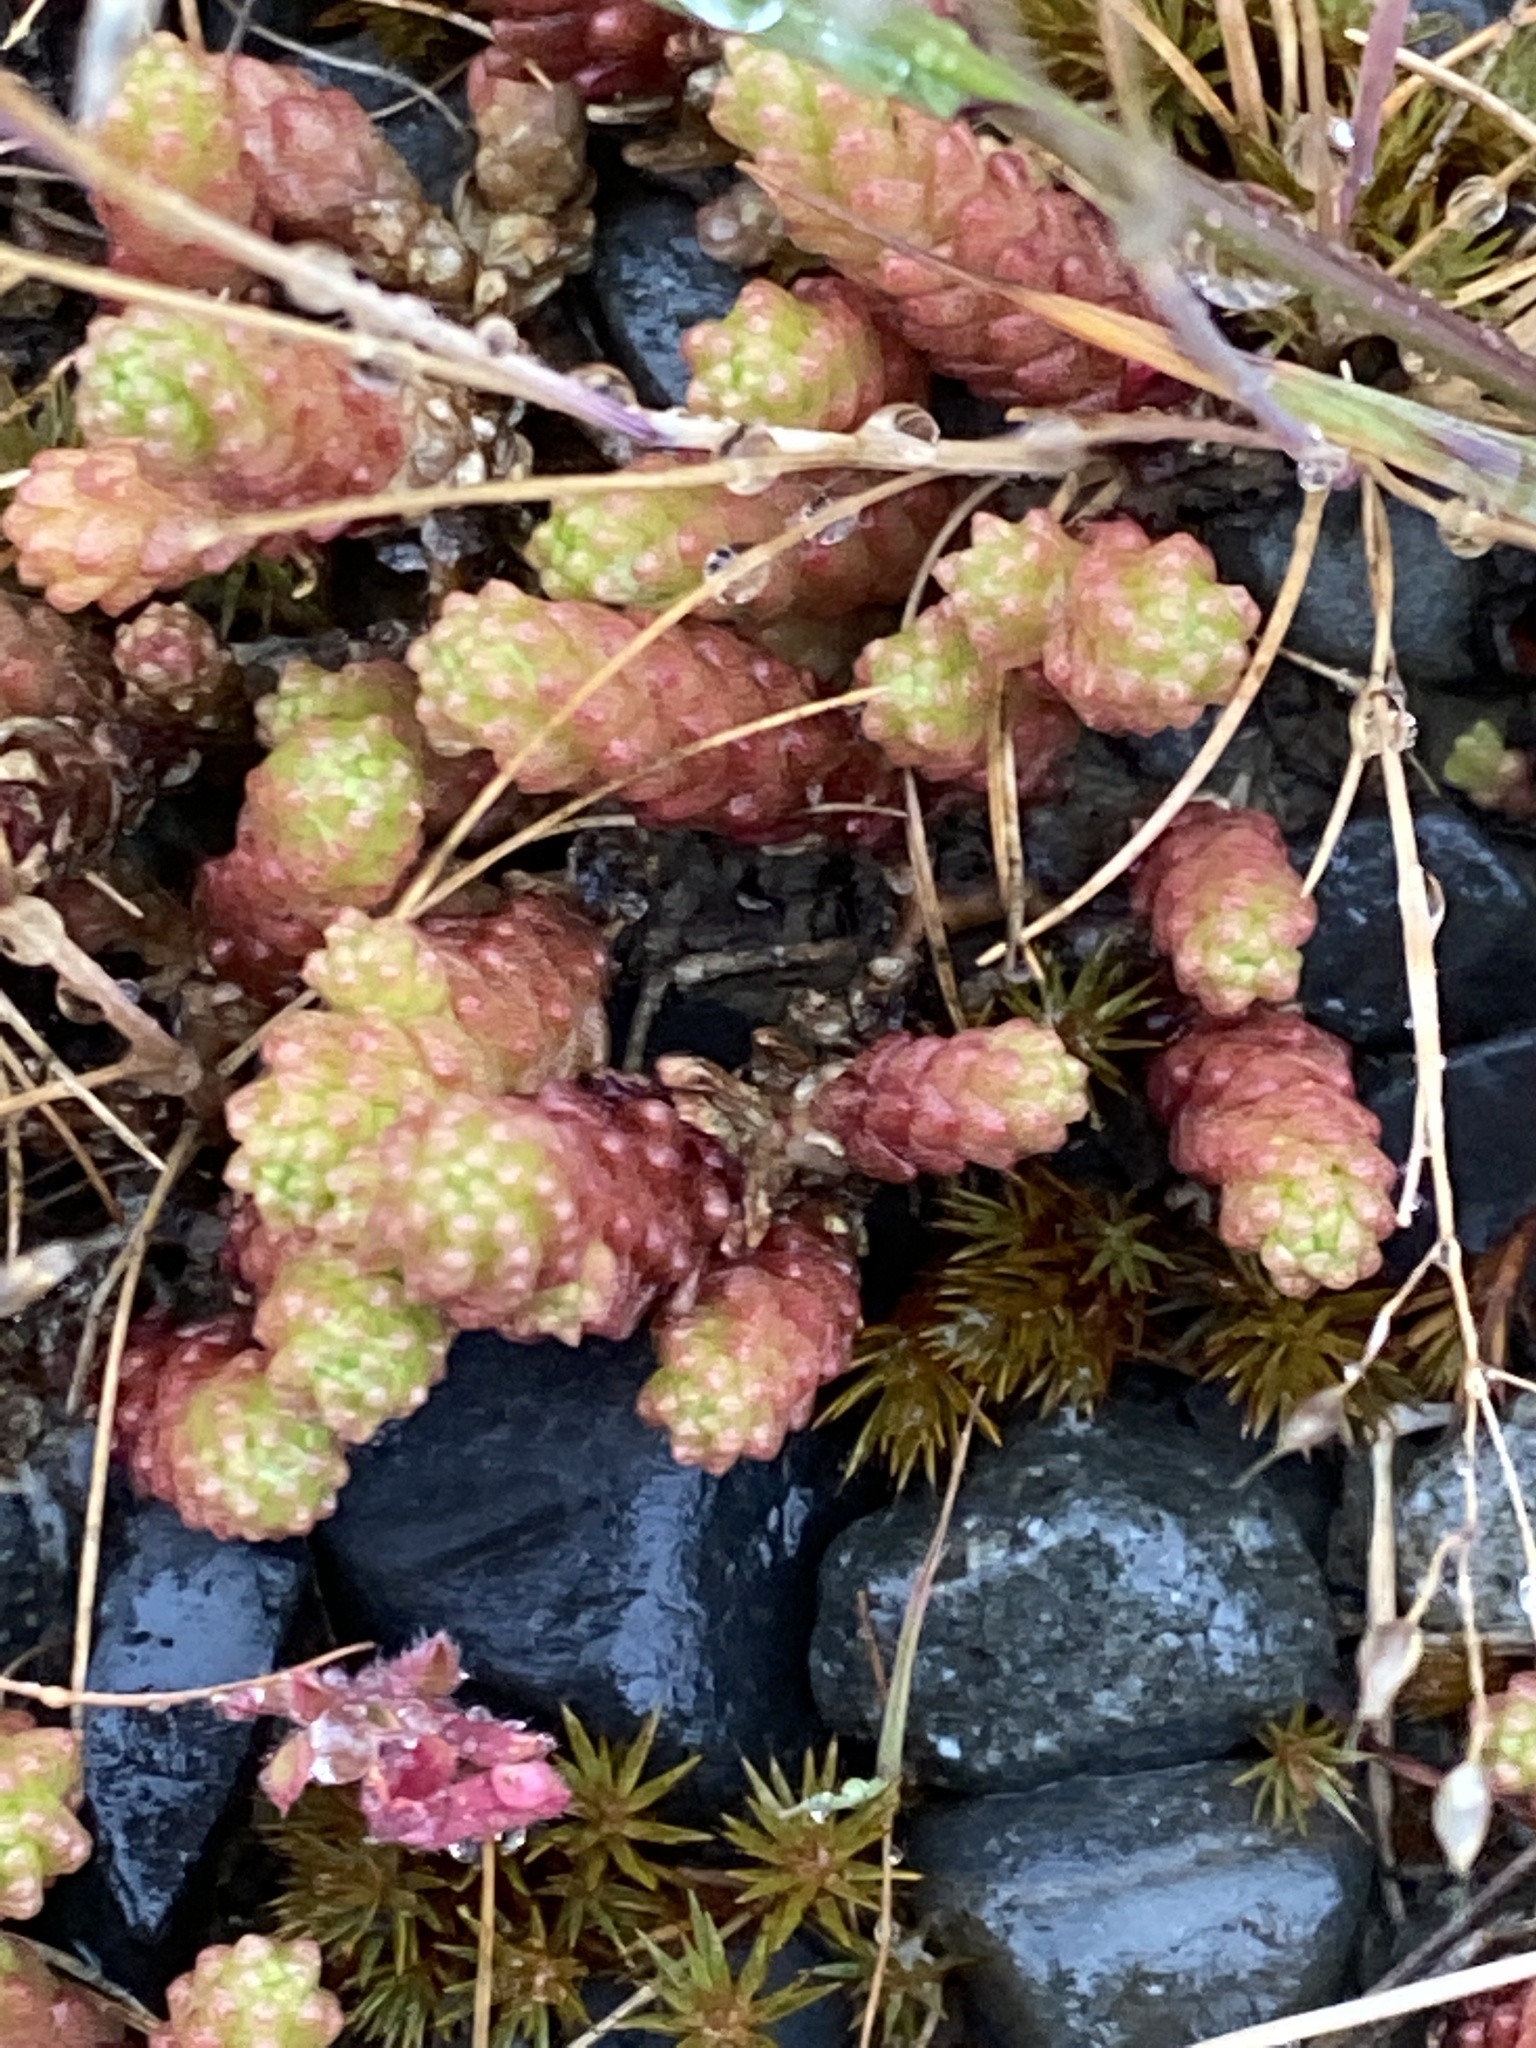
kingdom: Plantae
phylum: Tracheophyta
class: Magnoliopsida
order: Saxifragales
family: Crassulaceae
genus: Sedum
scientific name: Sedum acre
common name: Biting stonecrop
